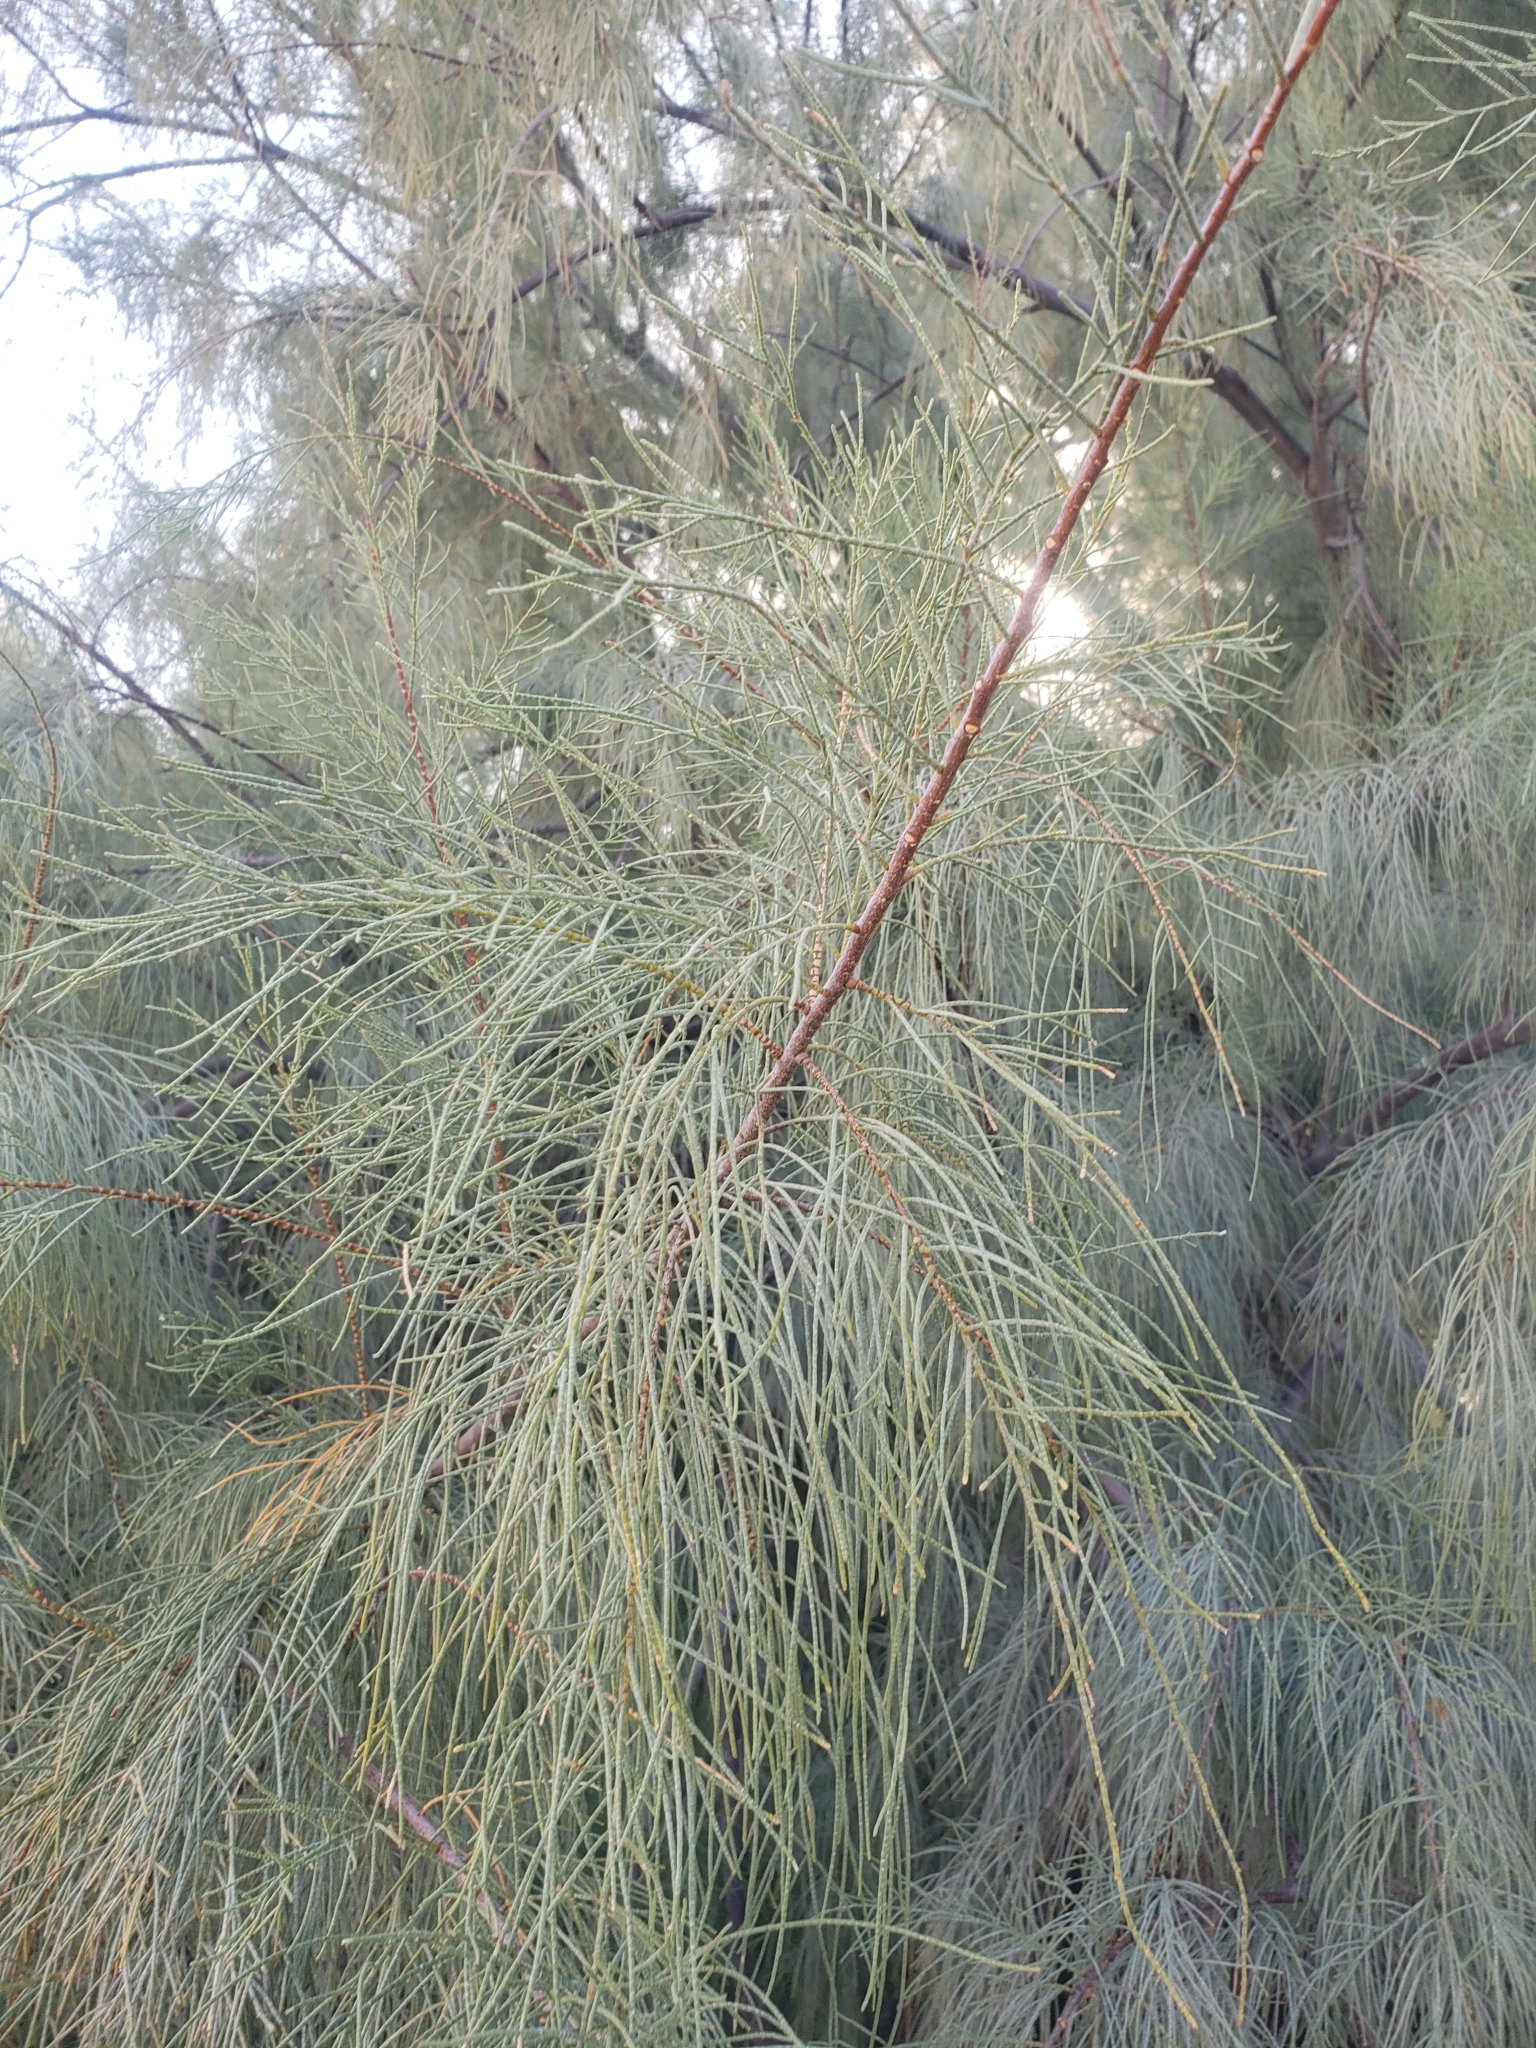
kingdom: Plantae
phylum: Tracheophyta
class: Magnoliopsida
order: Caryophyllales
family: Tamaricaceae
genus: Tamarix
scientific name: Tamarix aphylla
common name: Athel tamarisk
